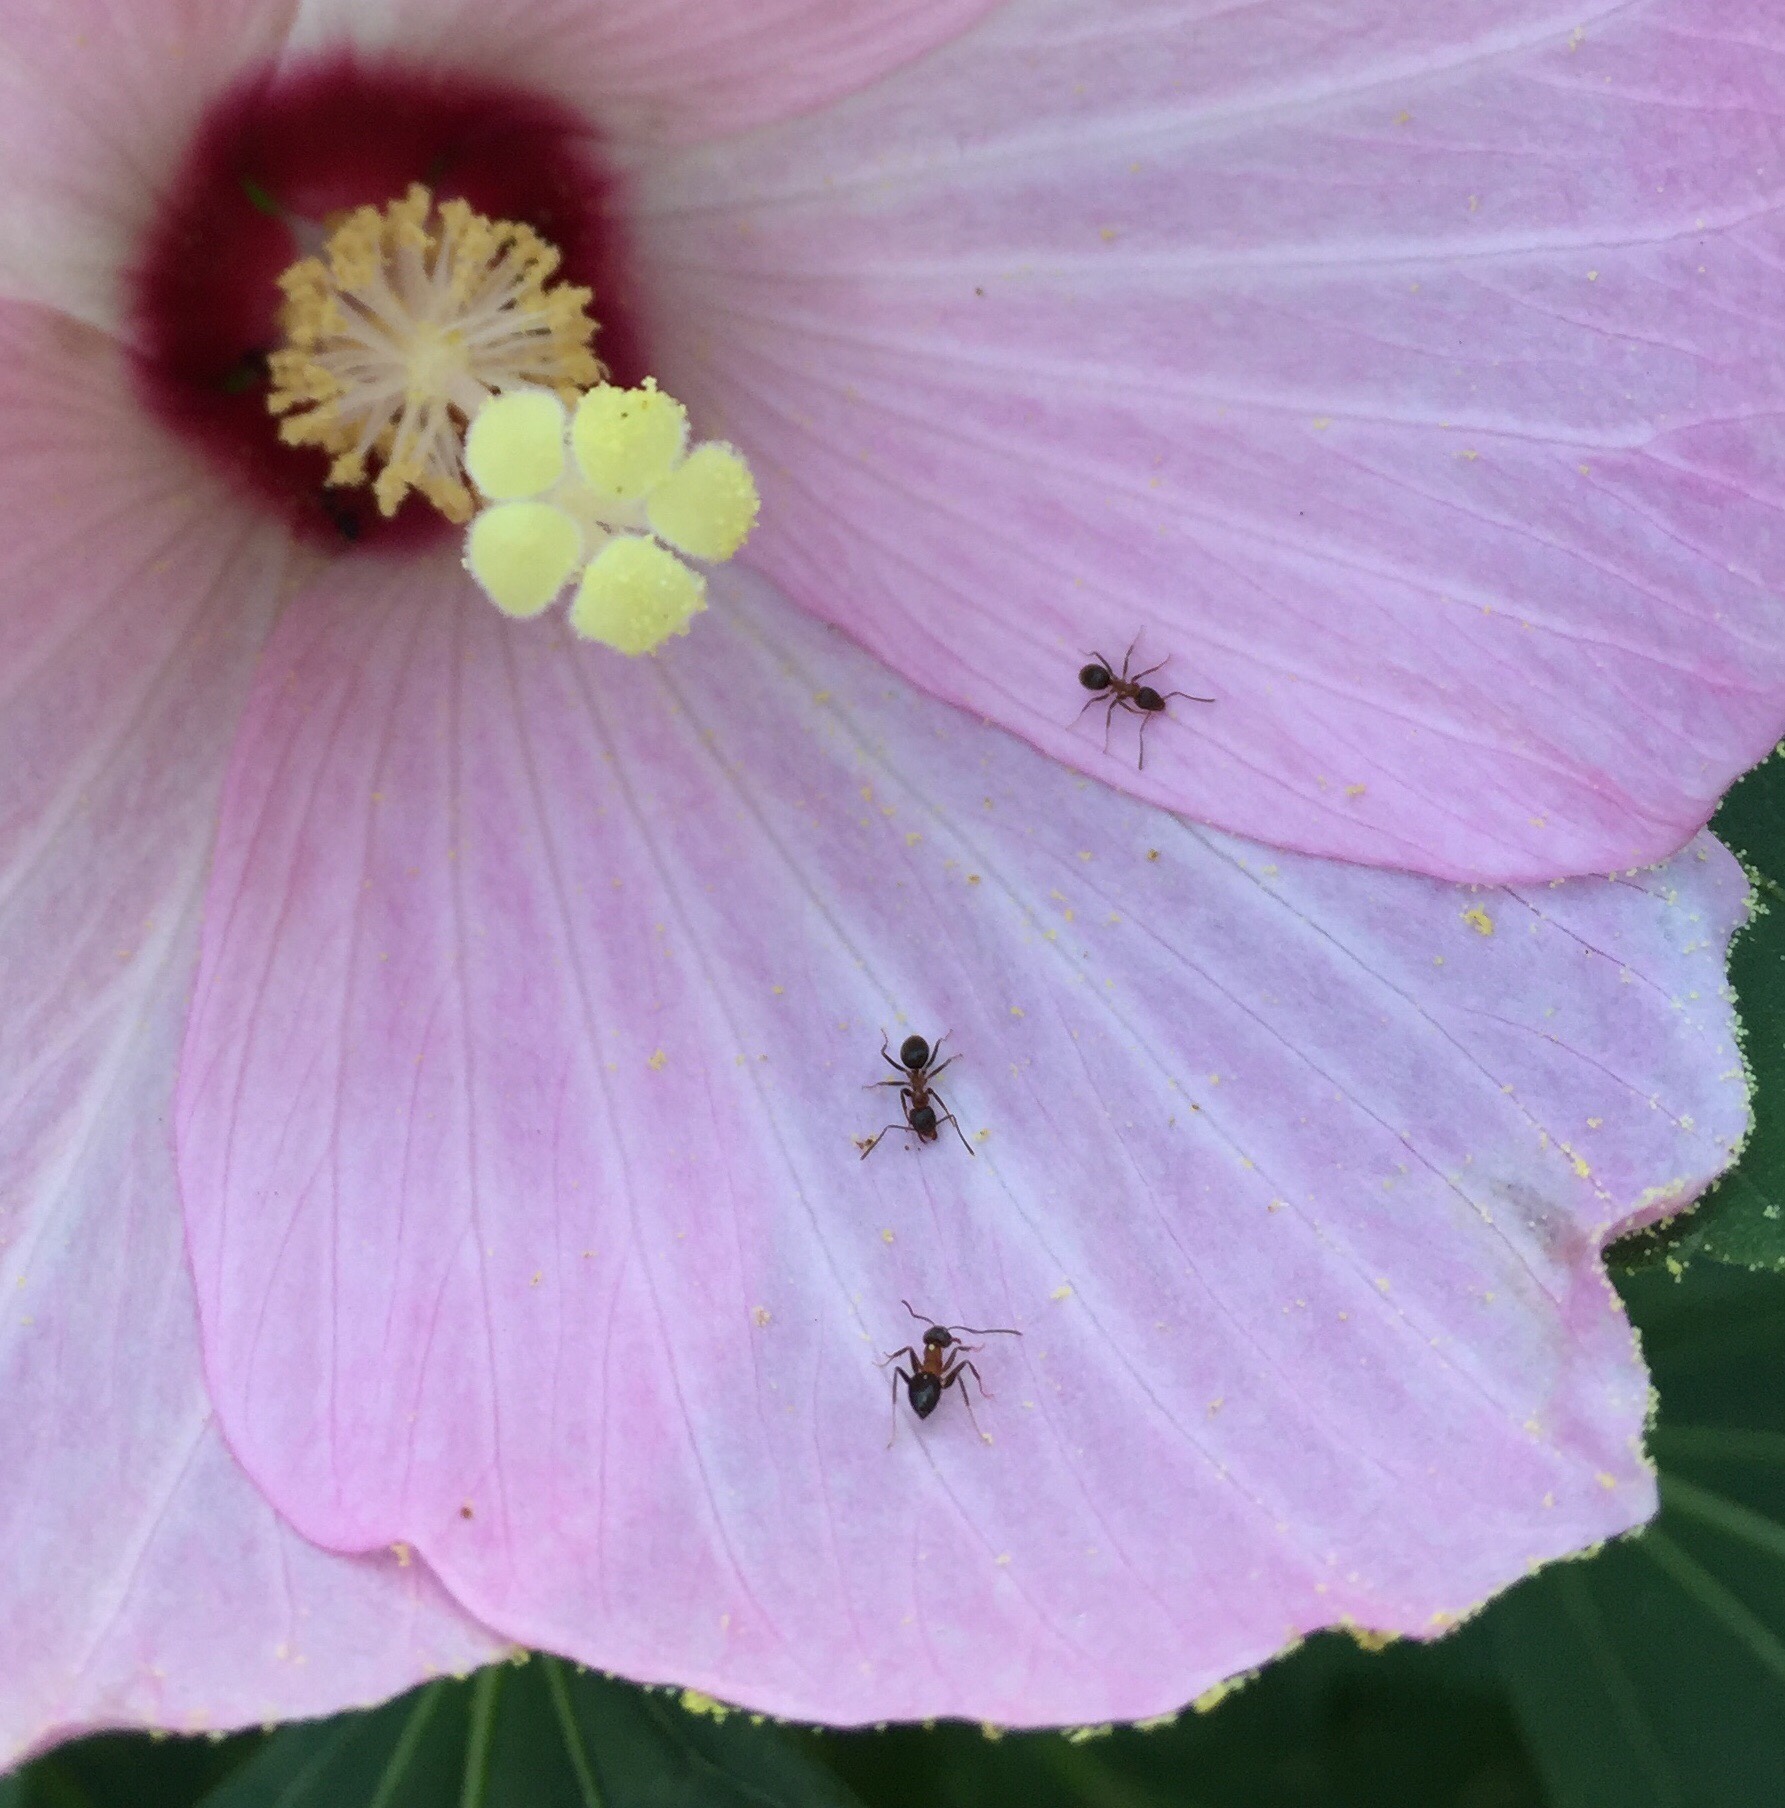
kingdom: Animalia
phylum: Arthropoda
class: Insecta
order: Hymenoptera
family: Formicidae
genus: Lasius
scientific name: Lasius emarginatus
